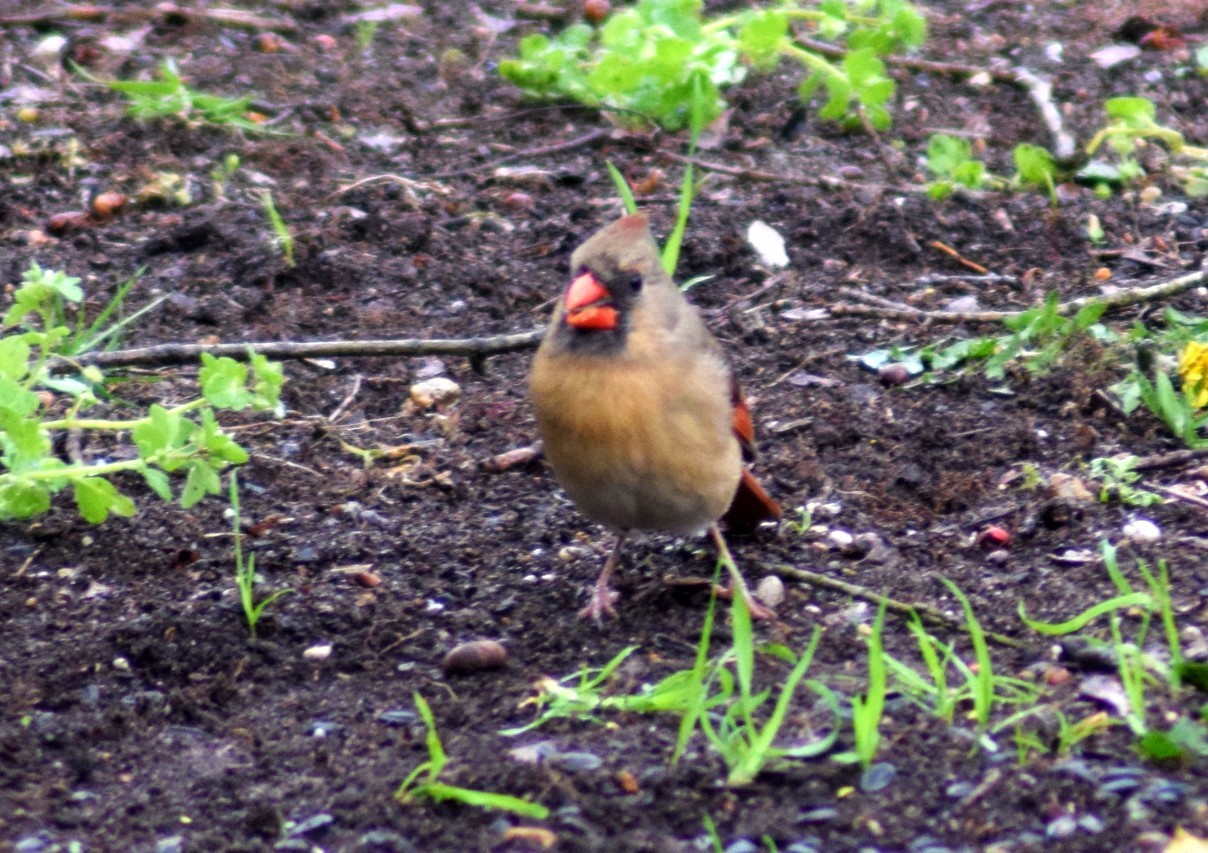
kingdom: Animalia
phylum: Chordata
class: Aves
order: Passeriformes
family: Cardinalidae
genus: Cardinalis
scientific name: Cardinalis cardinalis
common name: Northern cardinal
